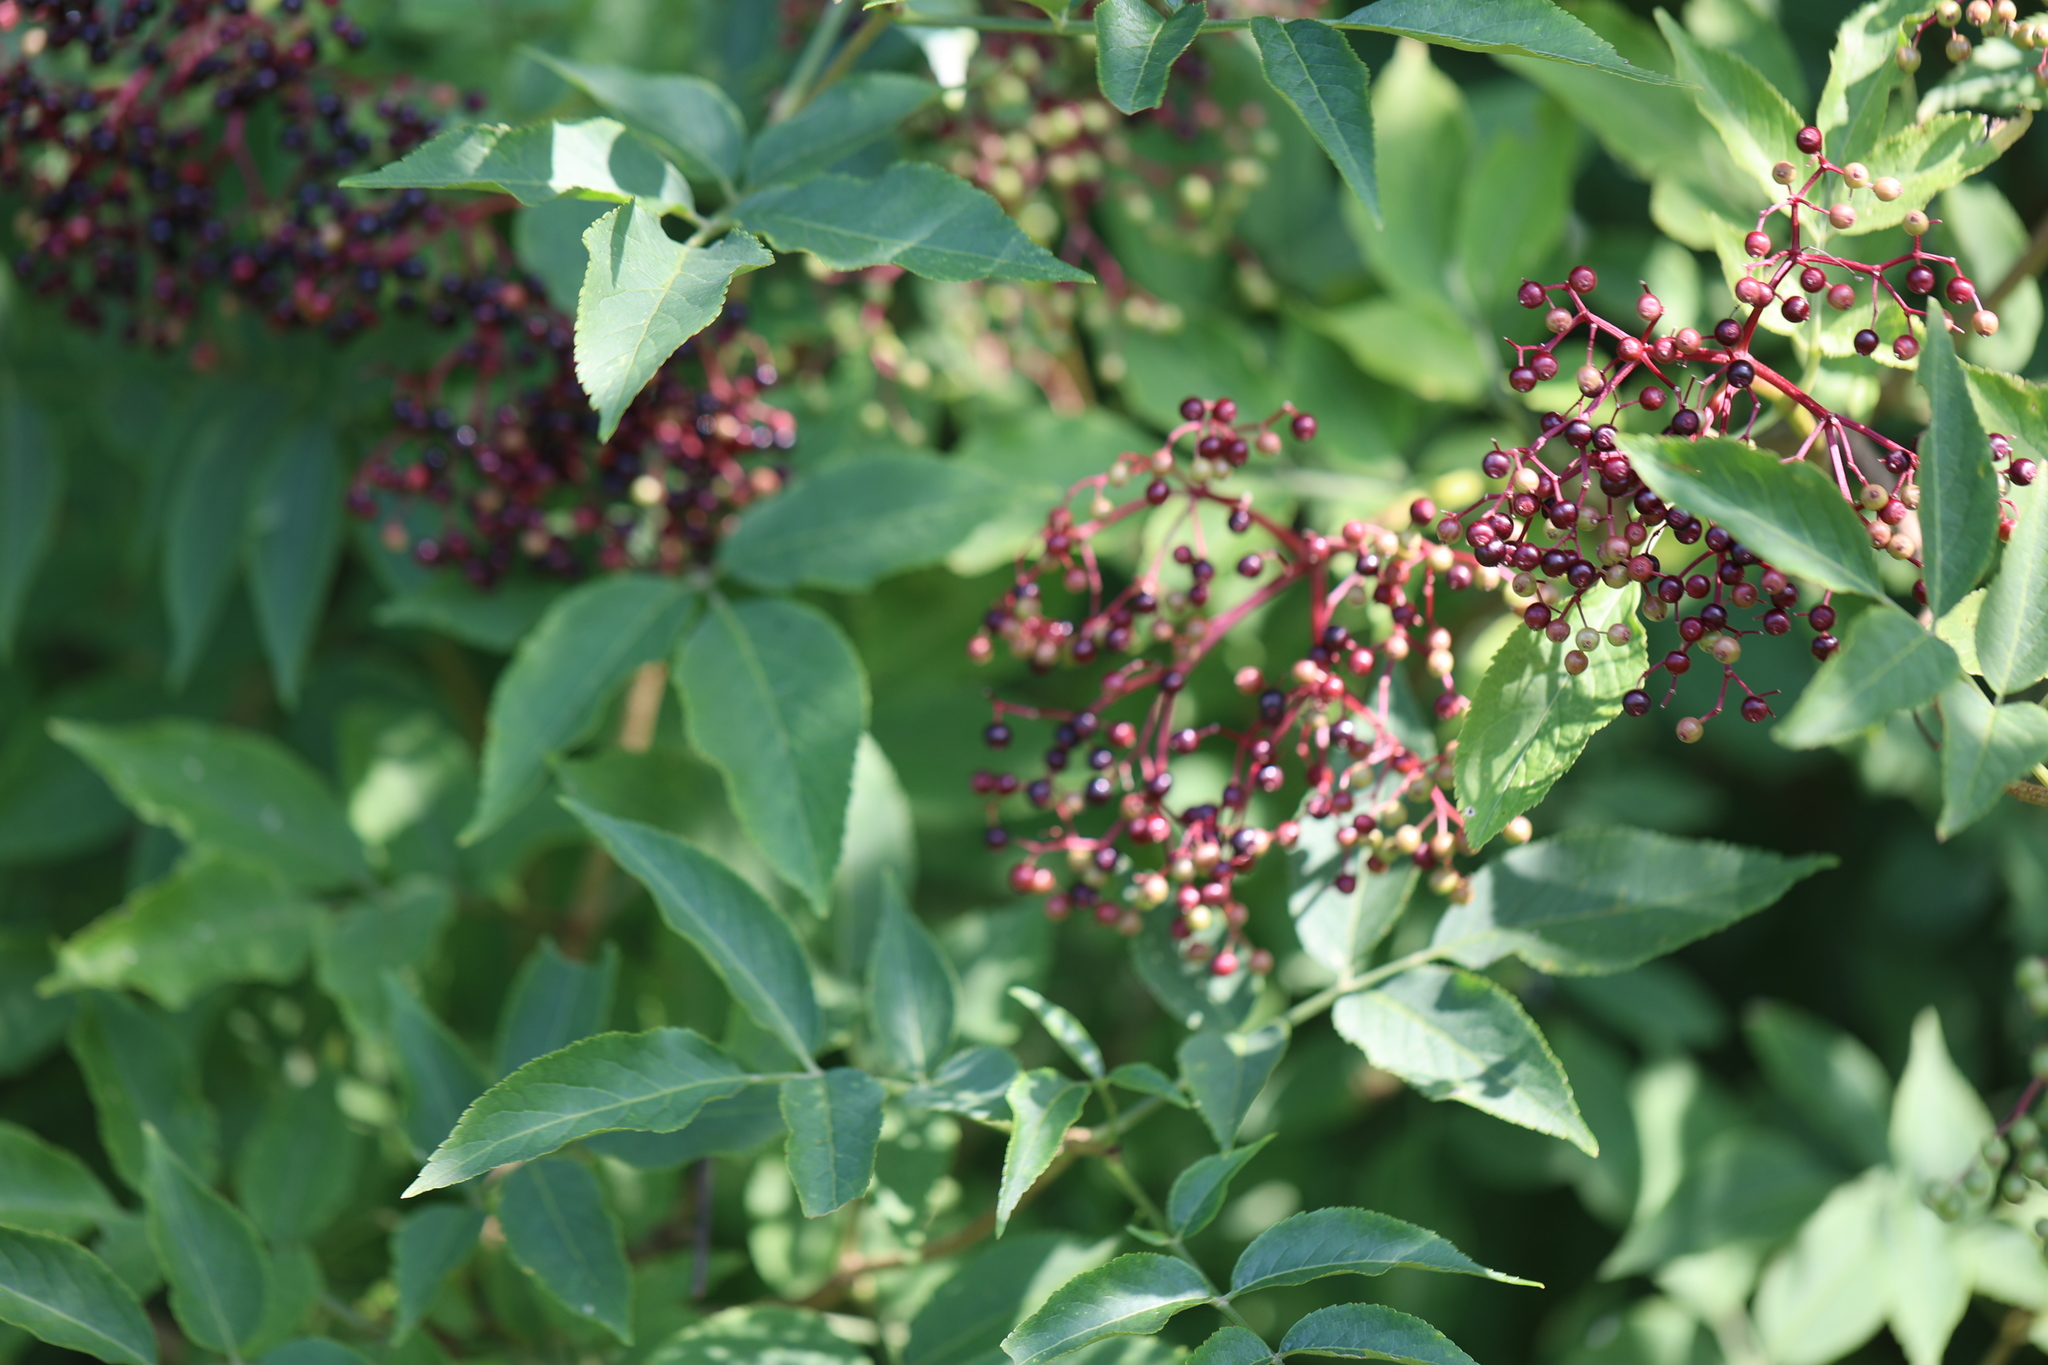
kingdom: Plantae
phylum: Tracheophyta
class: Magnoliopsida
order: Dipsacales
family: Viburnaceae
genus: Sambucus
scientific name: Sambucus nigra
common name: Elder
